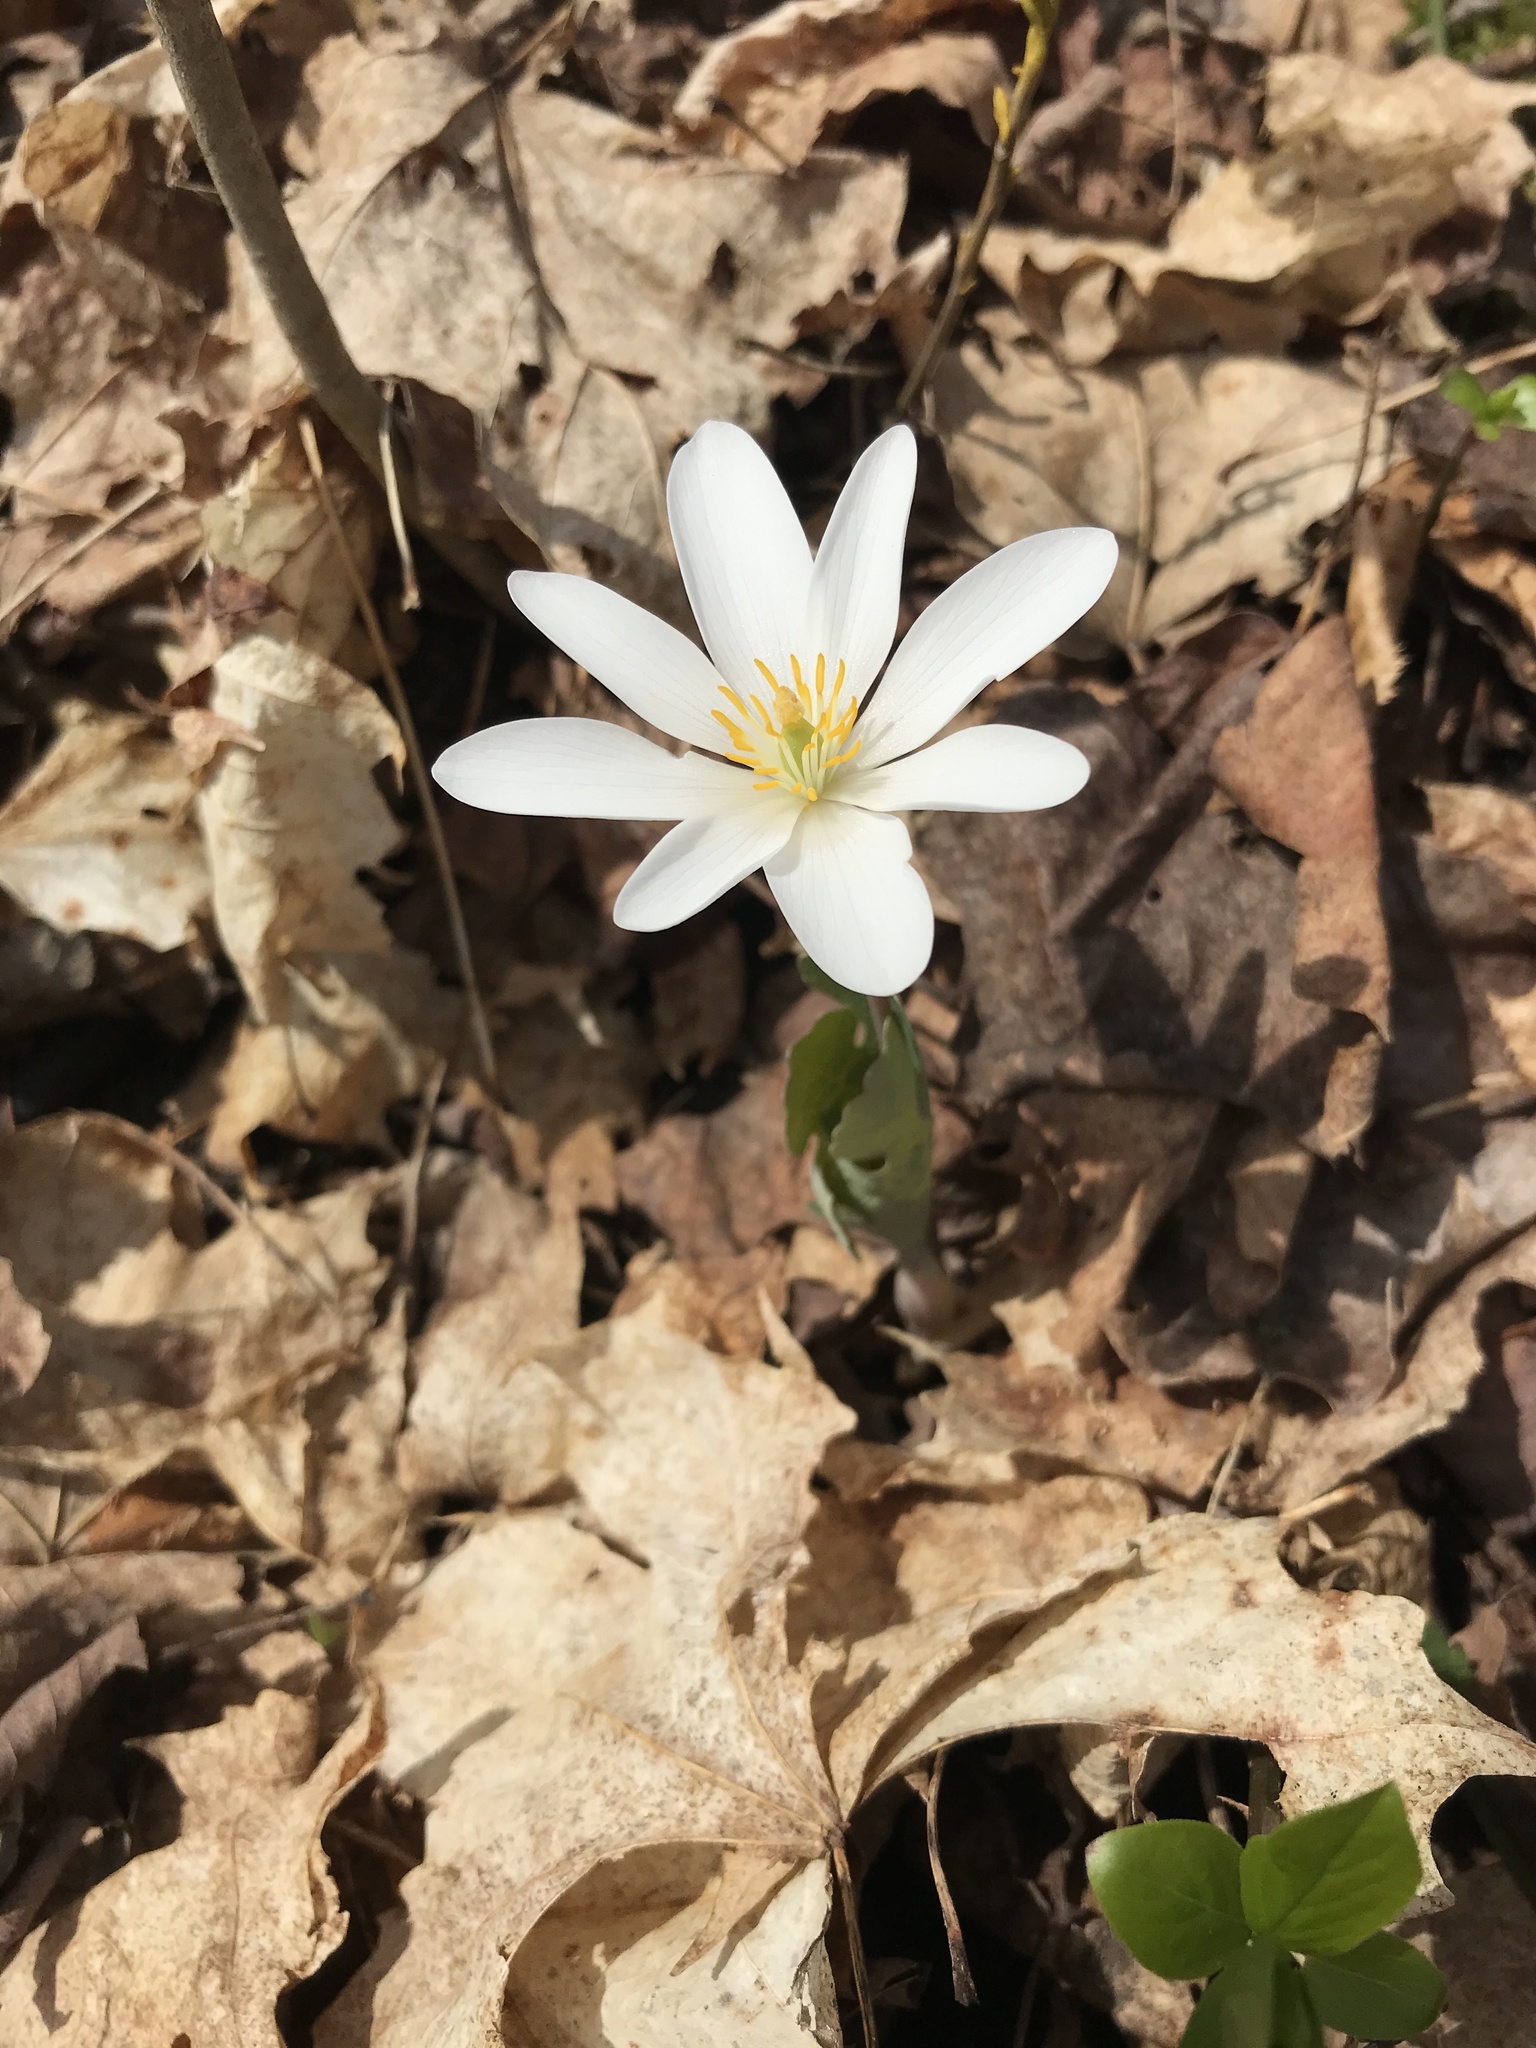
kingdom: Plantae
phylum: Tracheophyta
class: Magnoliopsida
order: Ranunculales
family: Papaveraceae
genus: Sanguinaria
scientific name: Sanguinaria canadensis
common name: Bloodroot
